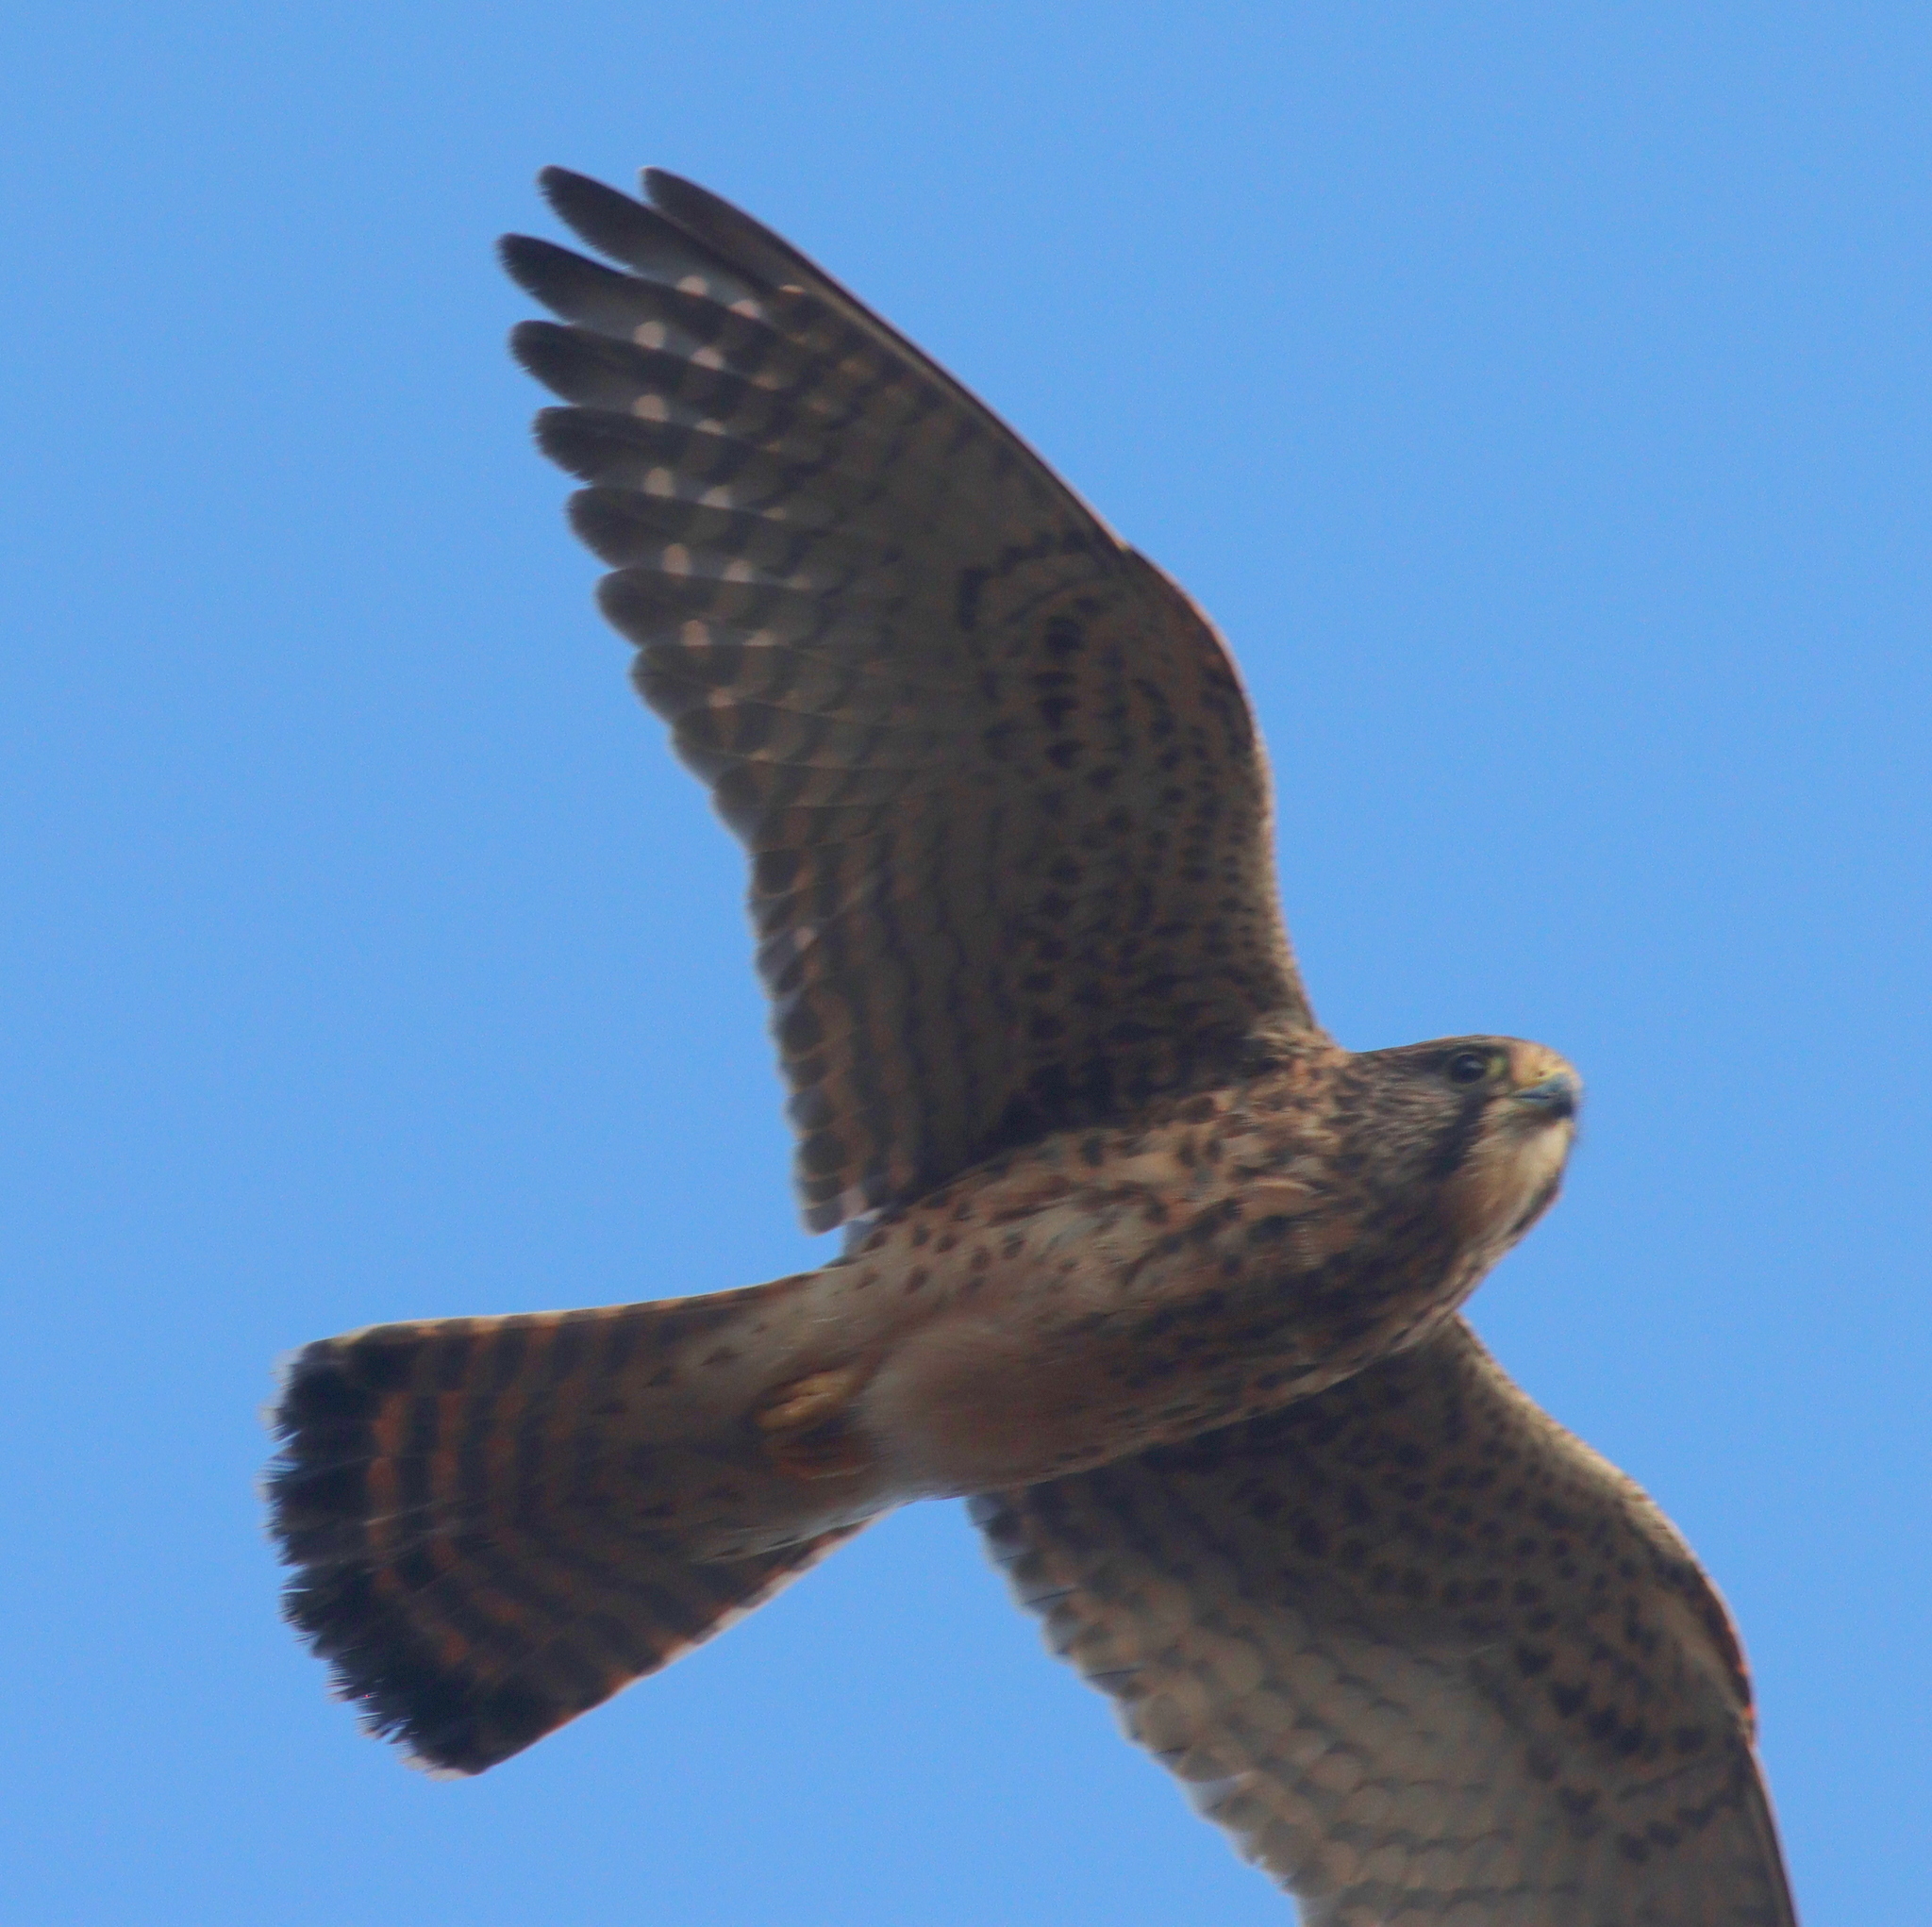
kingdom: Animalia
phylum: Chordata
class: Aves
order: Falconiformes
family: Falconidae
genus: Falco
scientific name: Falco tinnunculus
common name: Common kestrel
